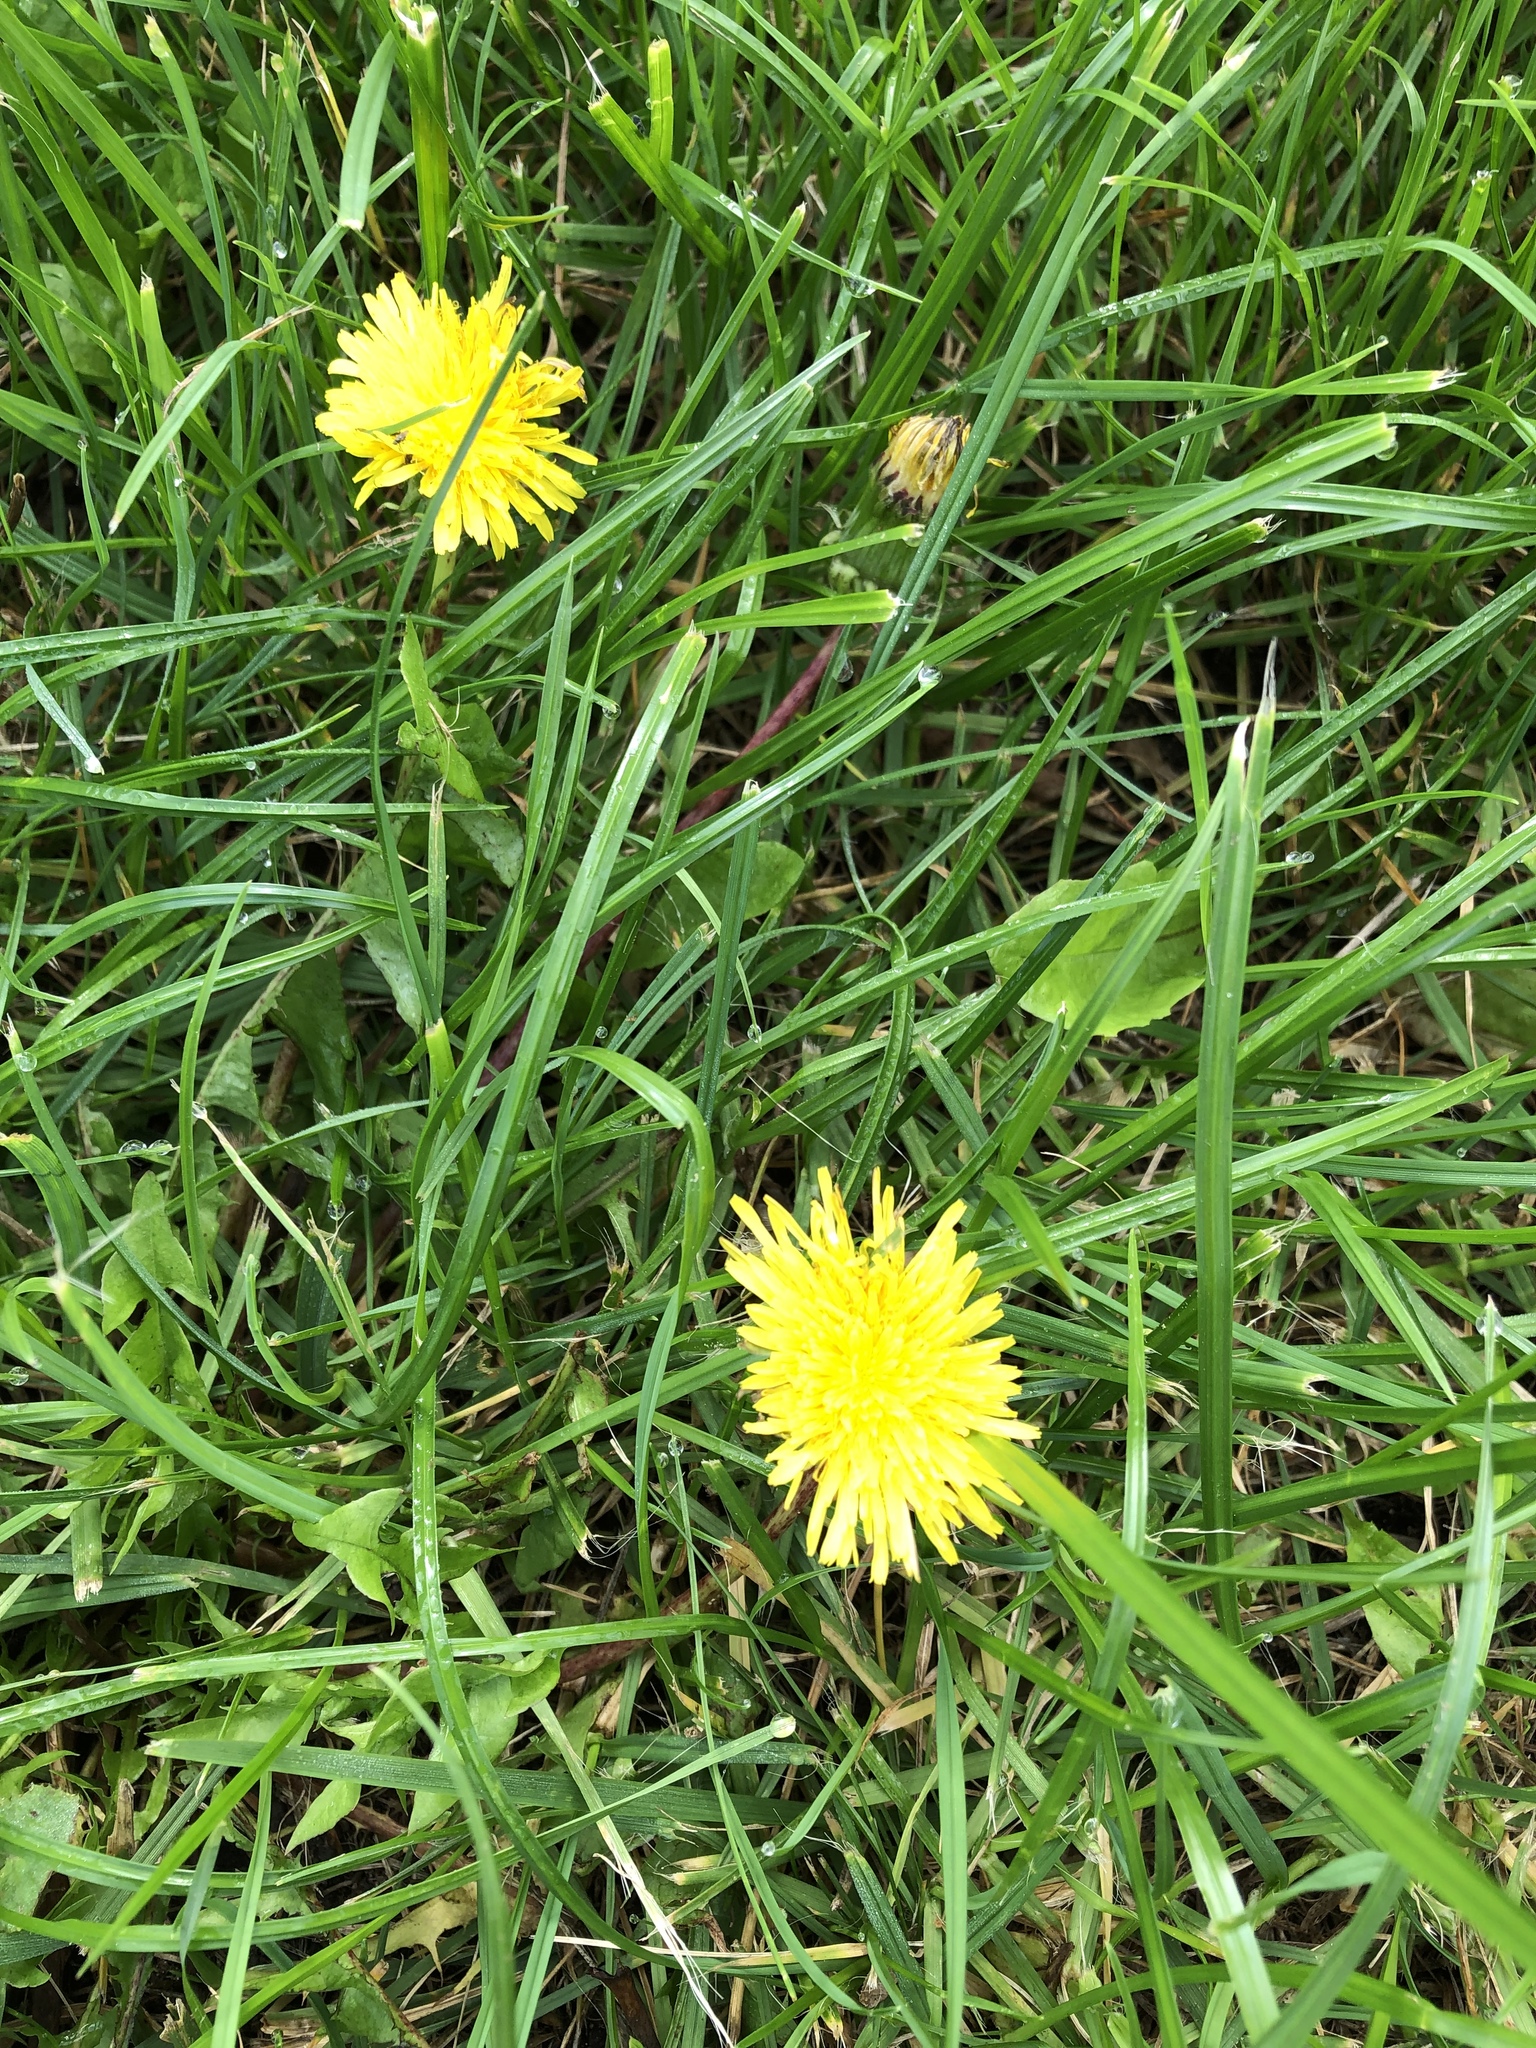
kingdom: Plantae
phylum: Tracheophyta
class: Magnoliopsida
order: Asterales
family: Asteraceae
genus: Taraxacum
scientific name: Taraxacum officinale
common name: Common dandelion
